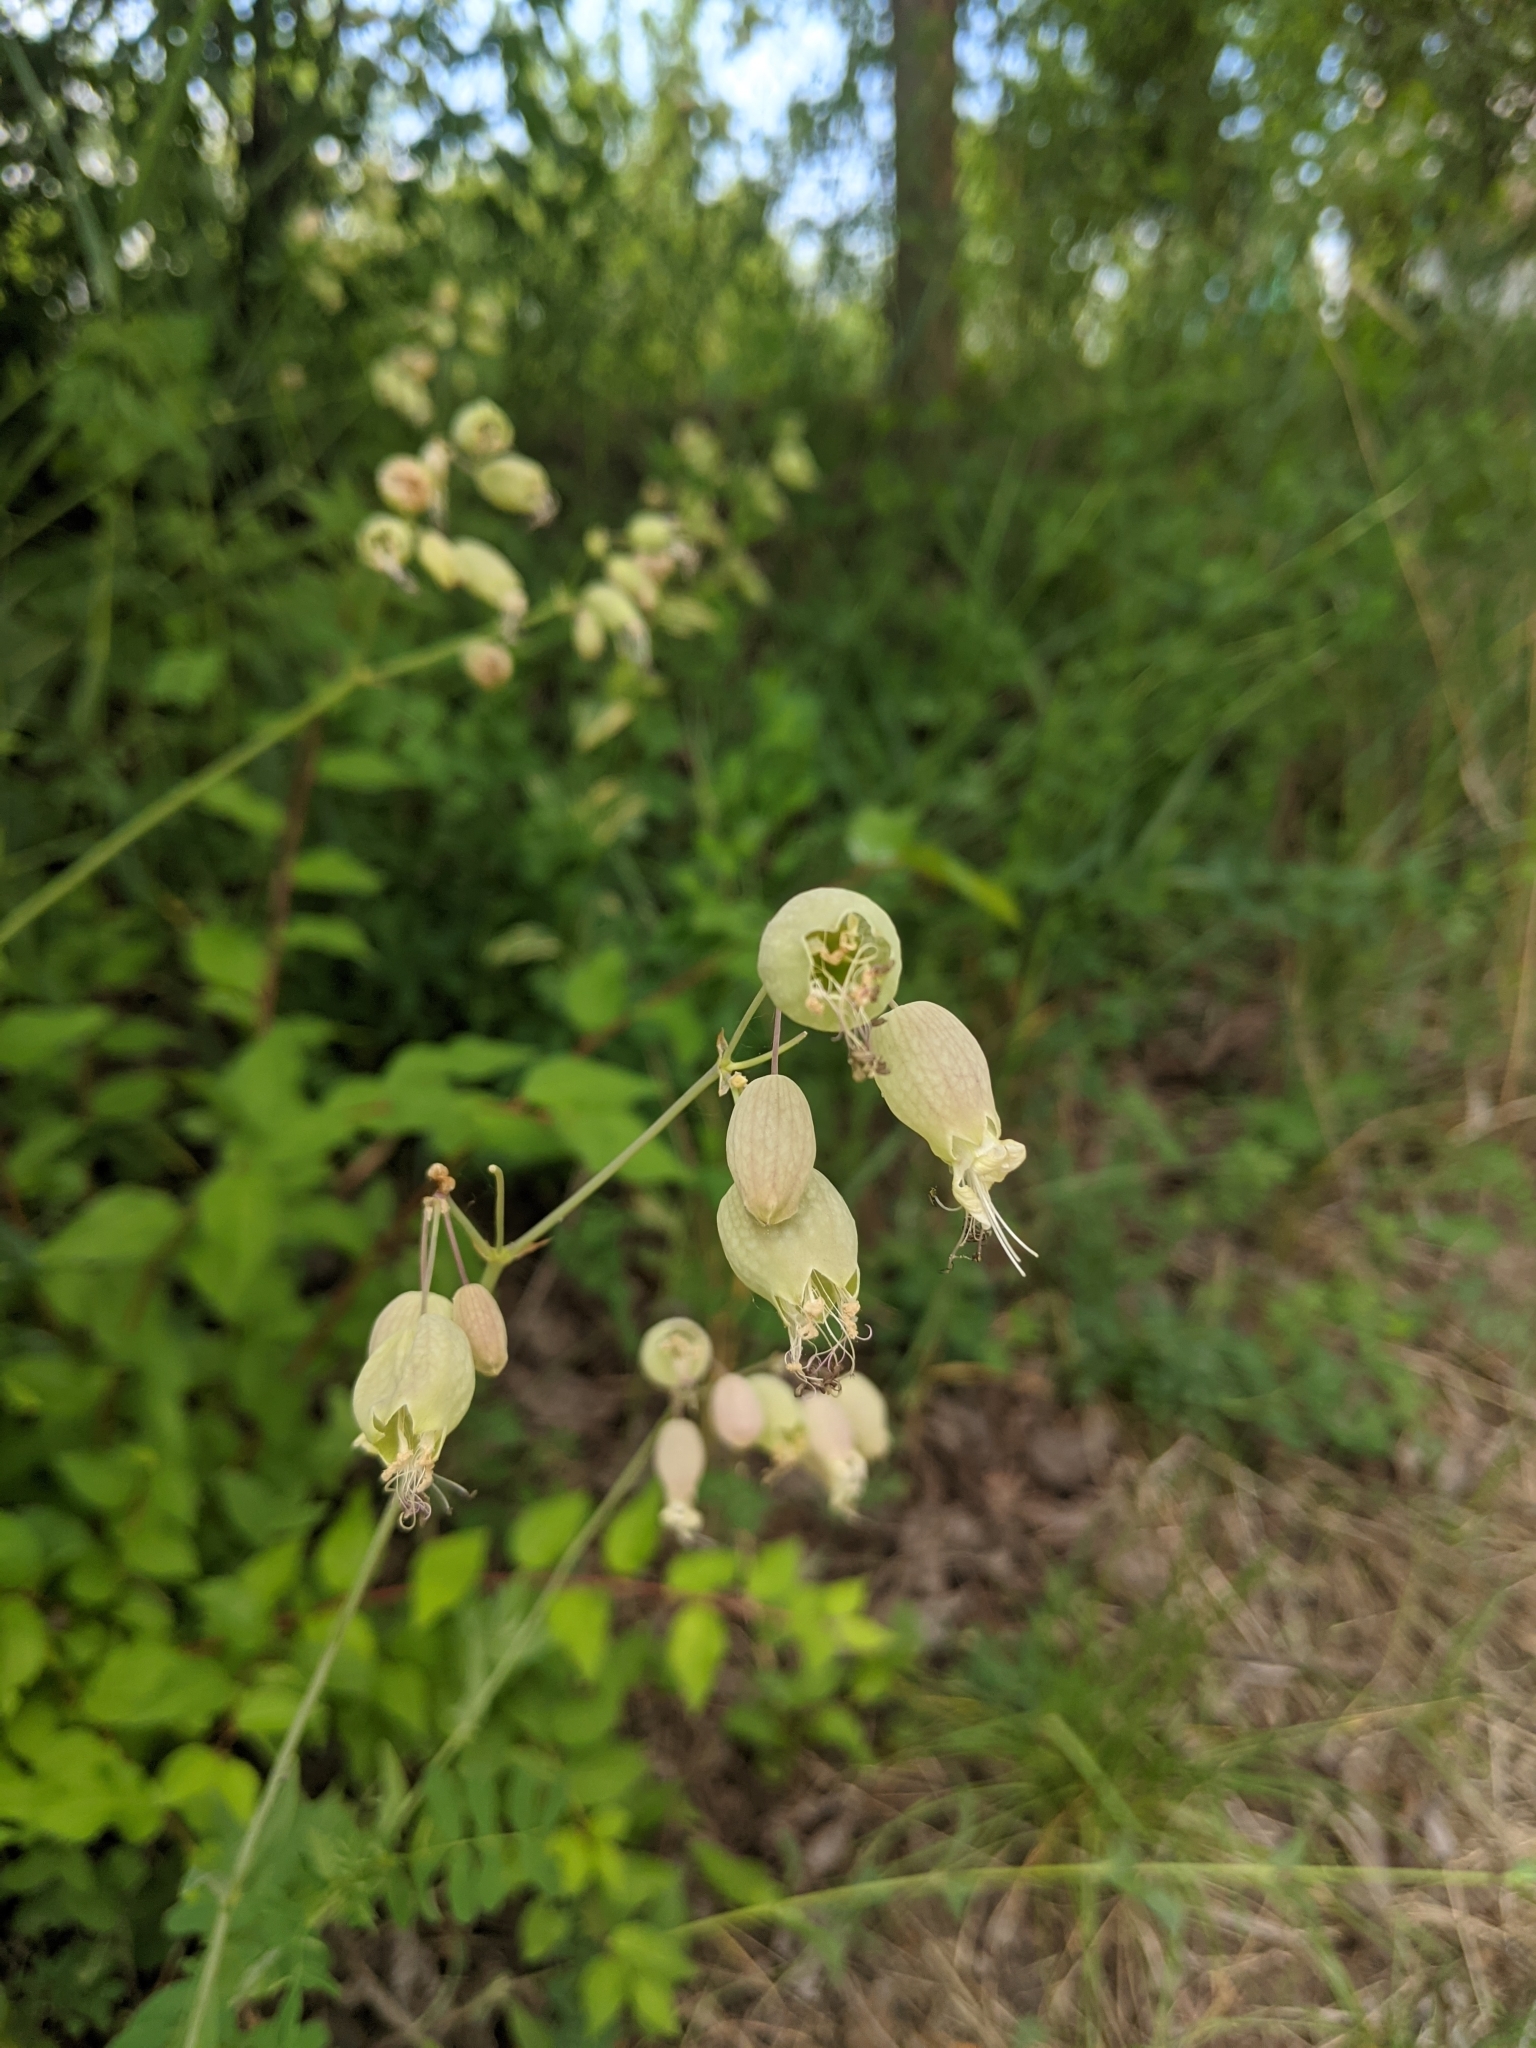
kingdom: Plantae
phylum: Tracheophyta
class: Magnoliopsida
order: Caryophyllales
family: Caryophyllaceae
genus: Silene
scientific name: Silene vulgaris
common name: Bladder campion
